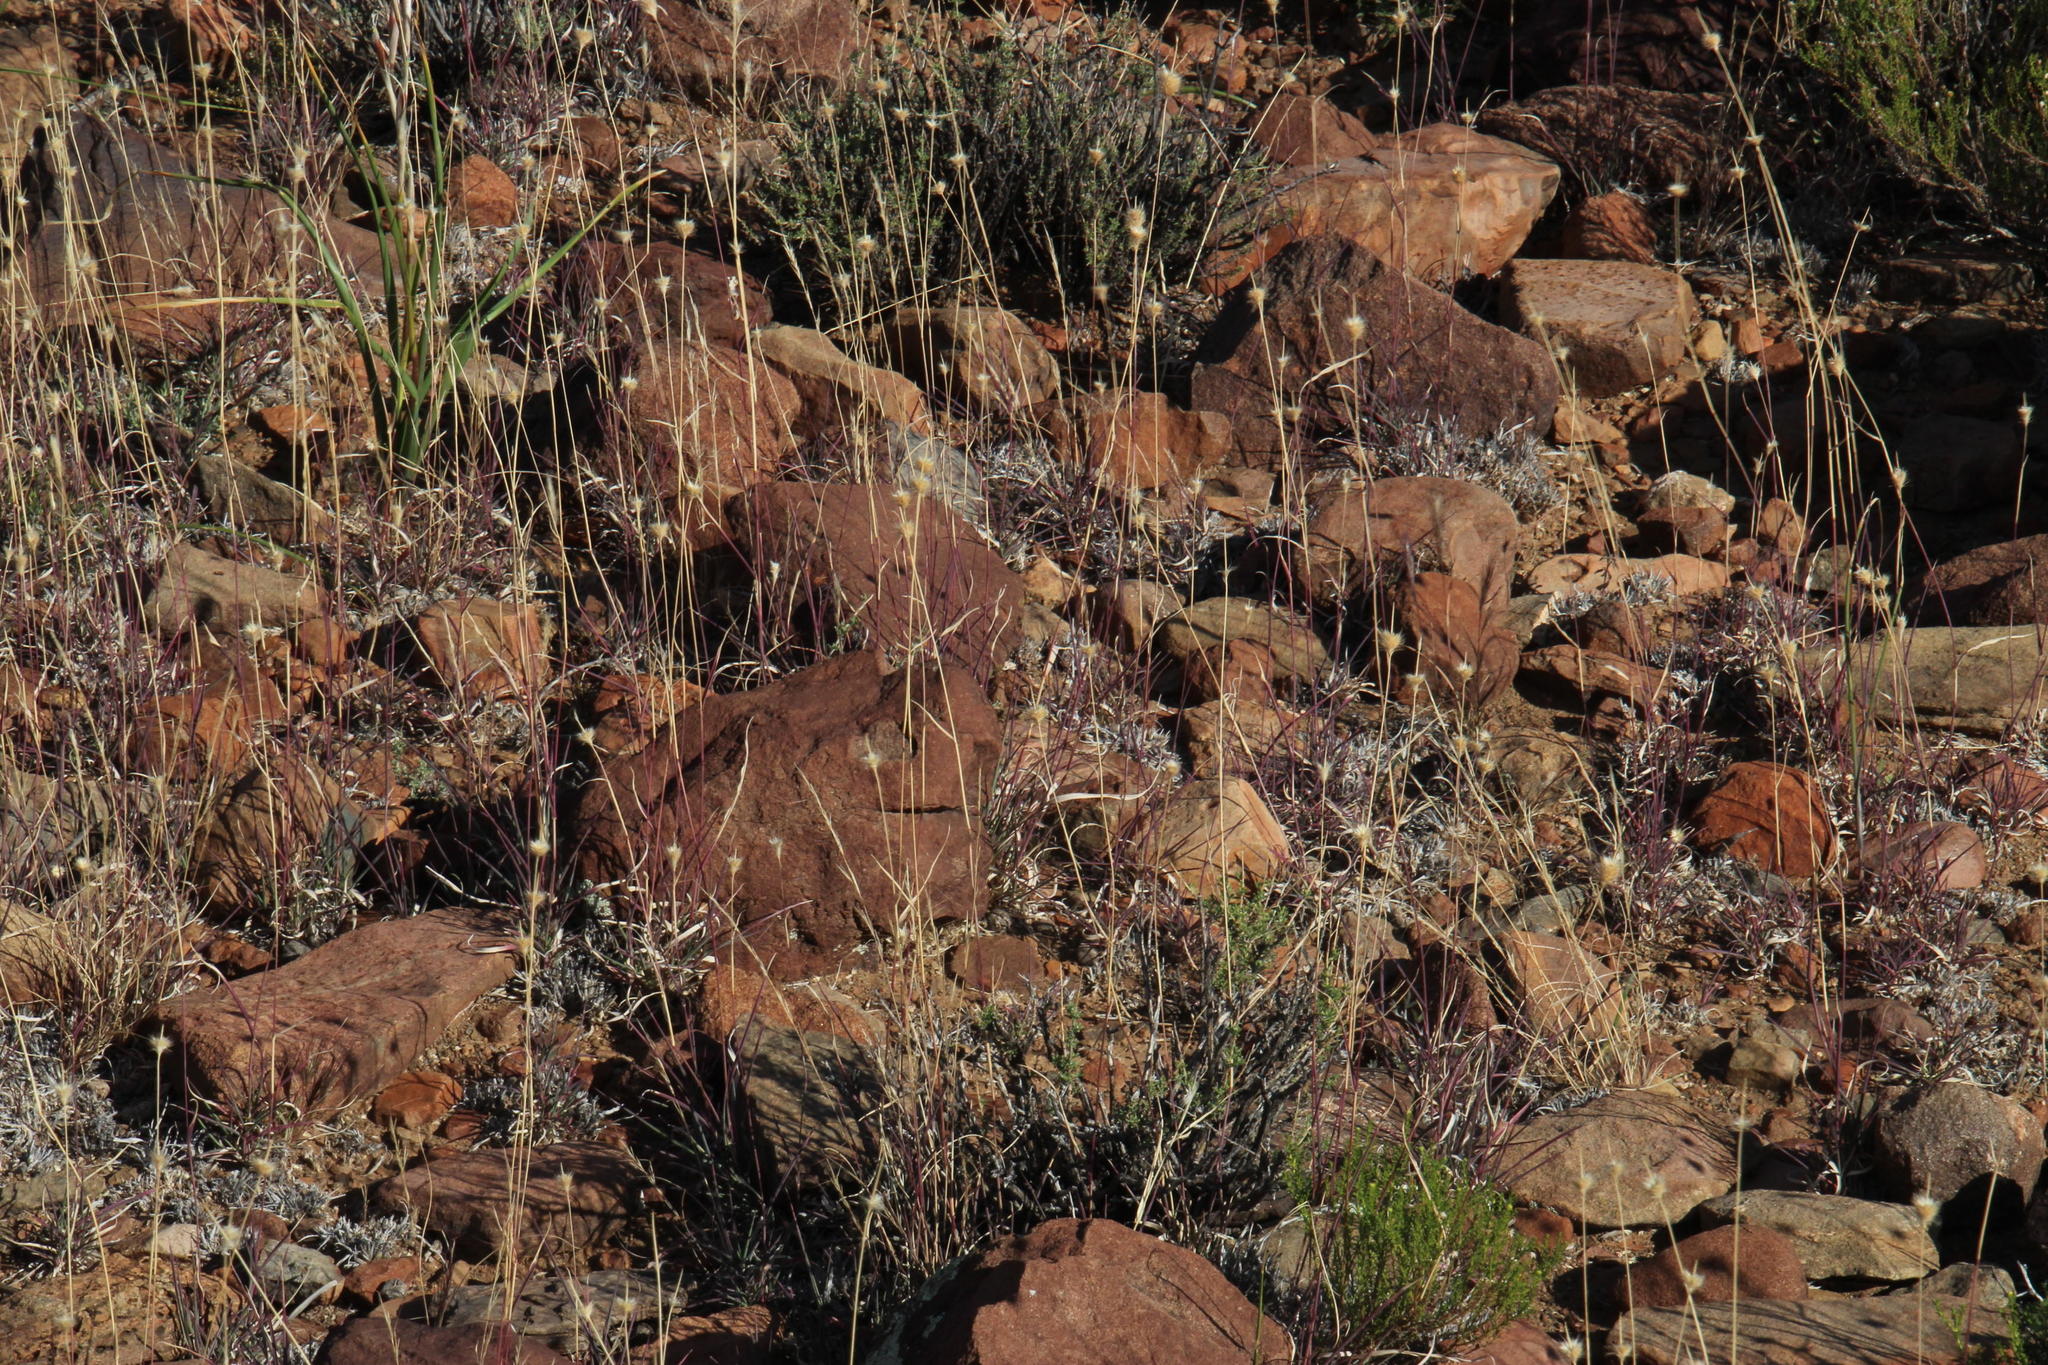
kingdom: Plantae
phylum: Tracheophyta
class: Liliopsida
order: Poales
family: Poaceae
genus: Fingerhuthia
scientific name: Fingerhuthia africana
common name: Zulu fescue
